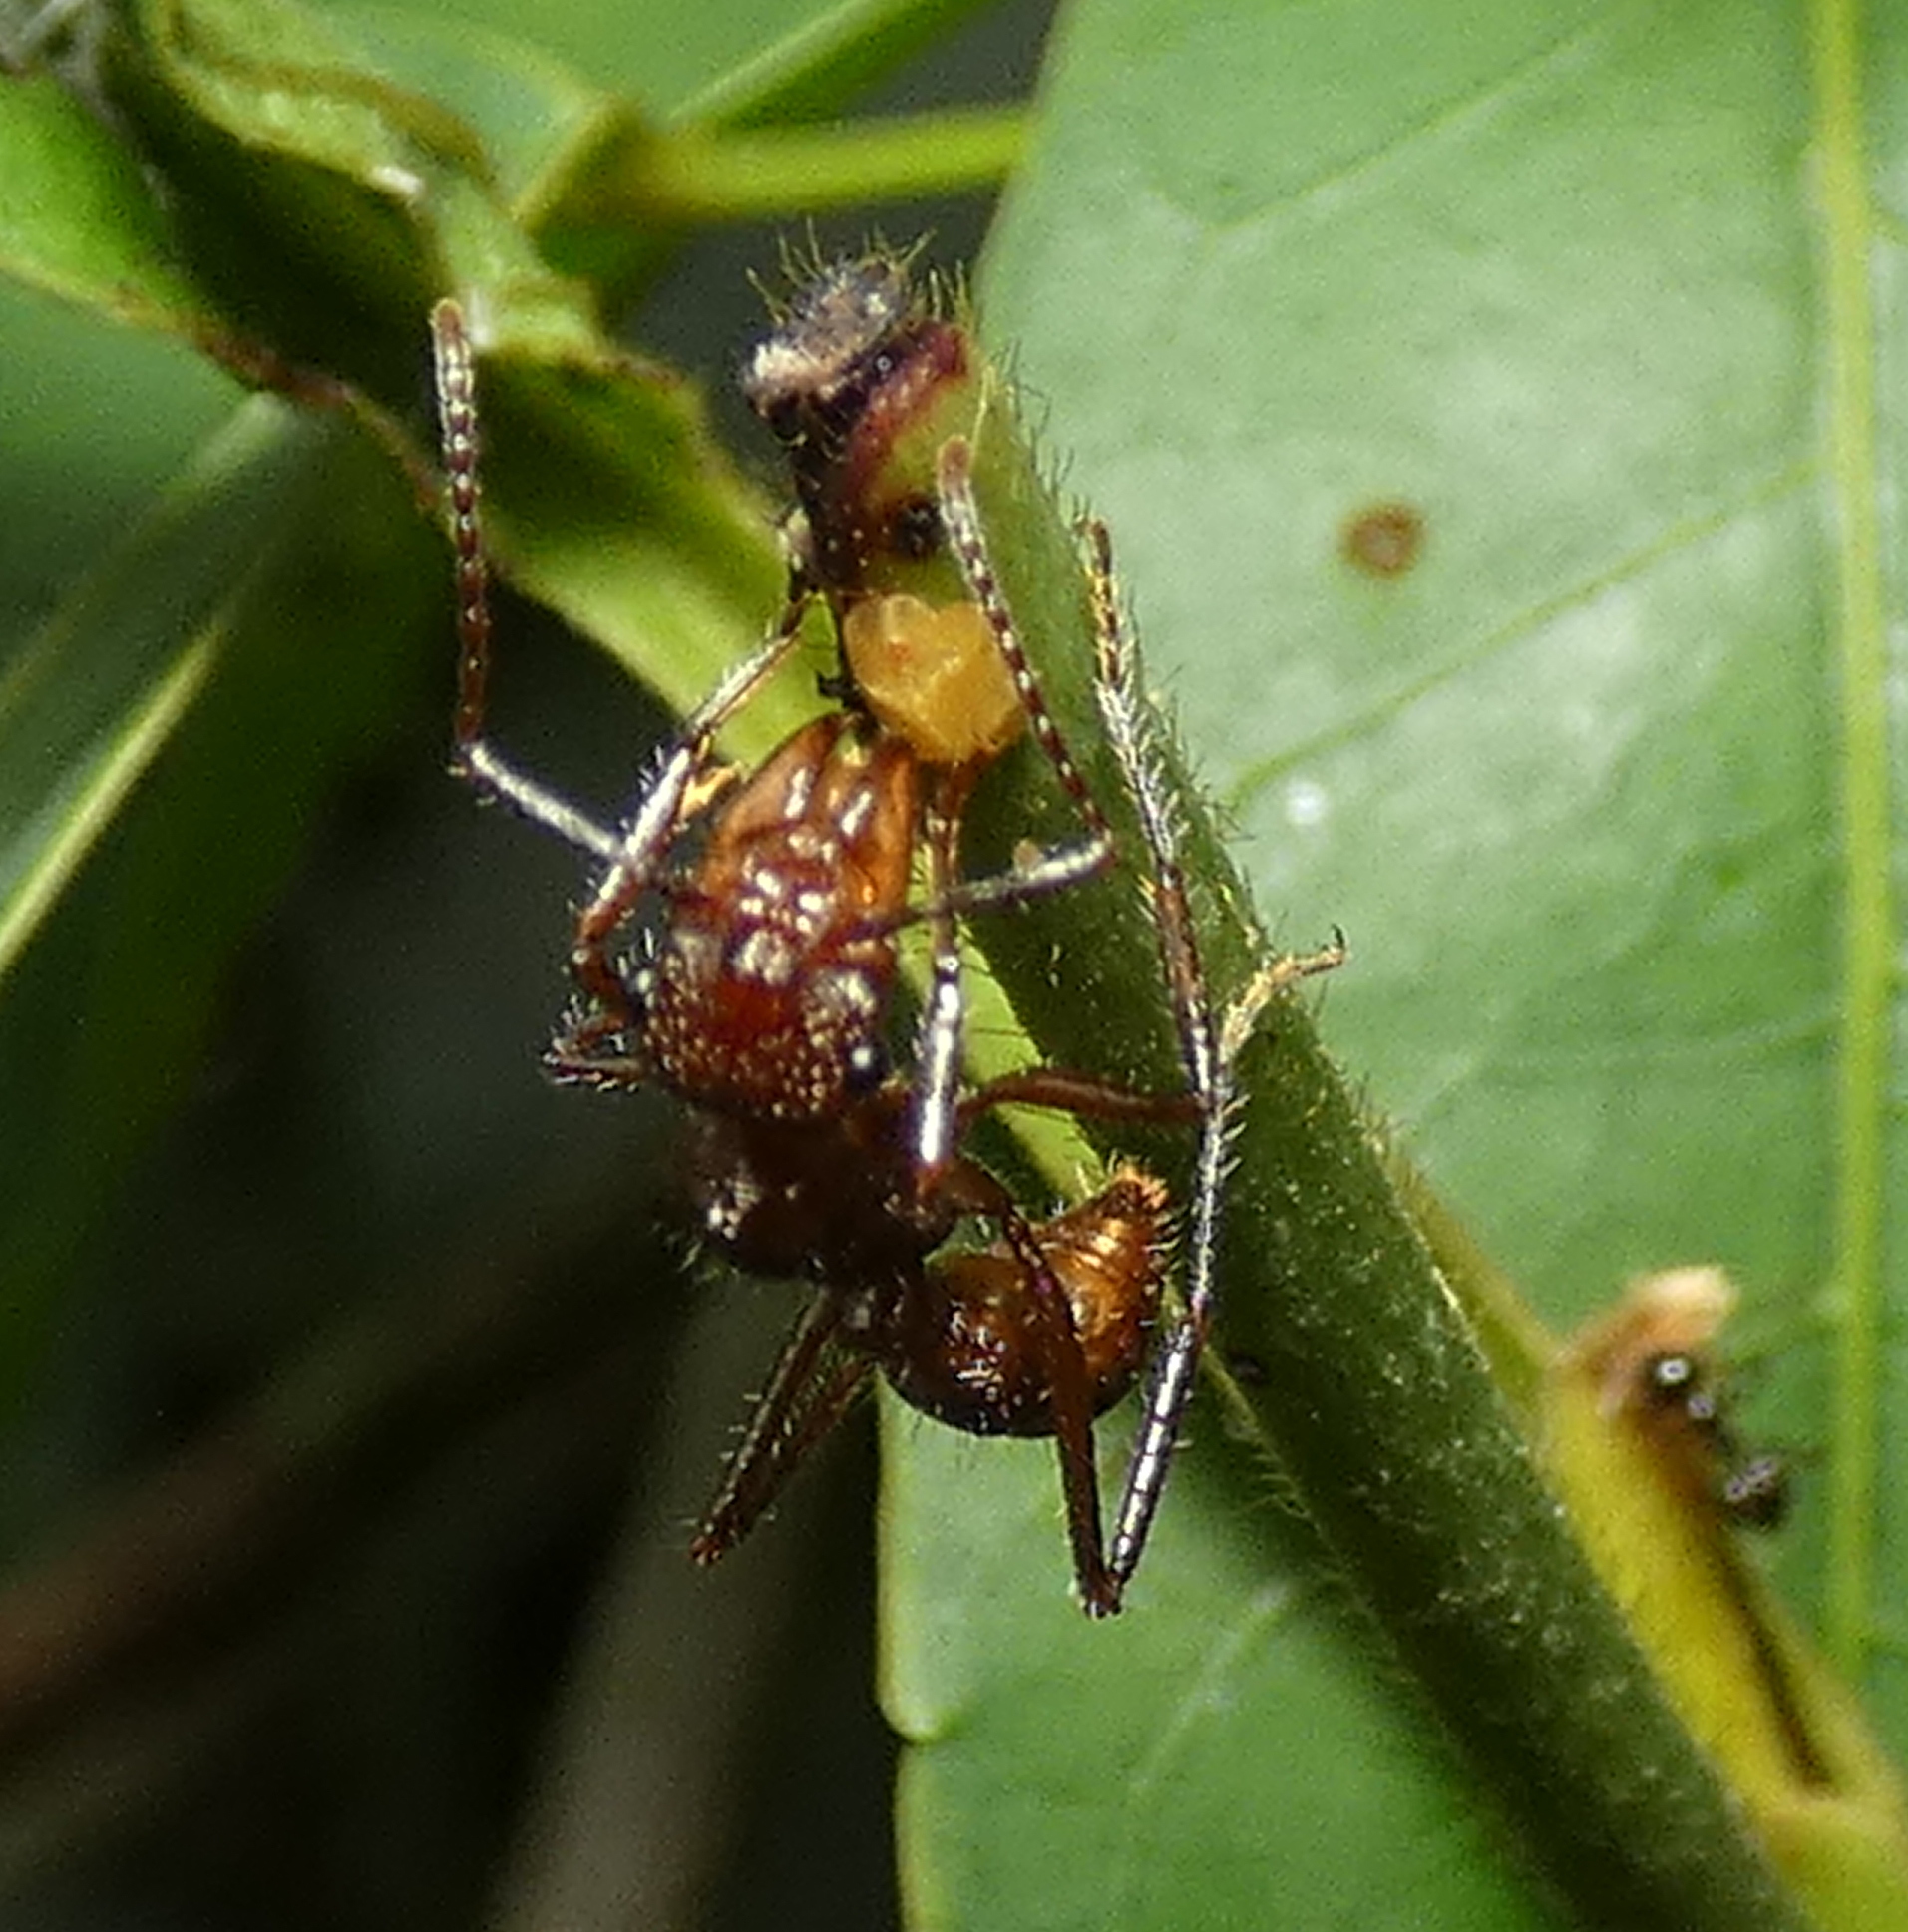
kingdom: Animalia
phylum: Arthropoda
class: Insecta
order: Hymenoptera
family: Formicidae
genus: Ectatomma
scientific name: Ectatomma tuberculatum
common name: Ant
